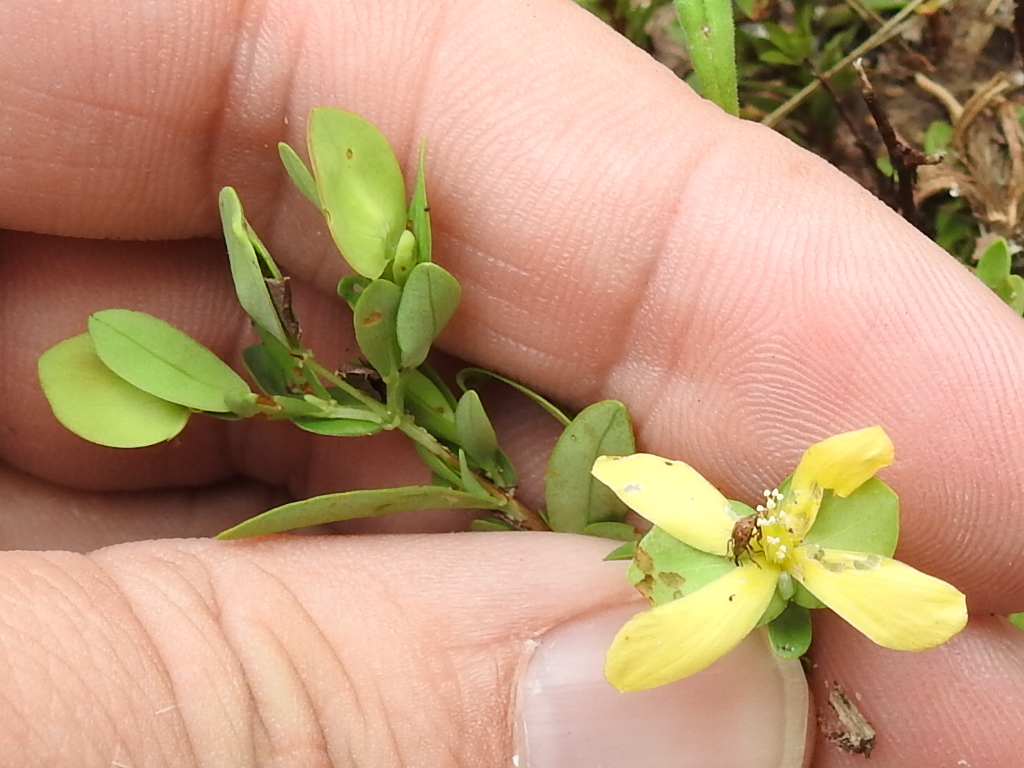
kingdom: Plantae
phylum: Tracheophyta
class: Magnoliopsida
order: Malpighiales
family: Hypericaceae
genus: Hypericum
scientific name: Hypericum hypericoides
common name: St. andrew's cross
